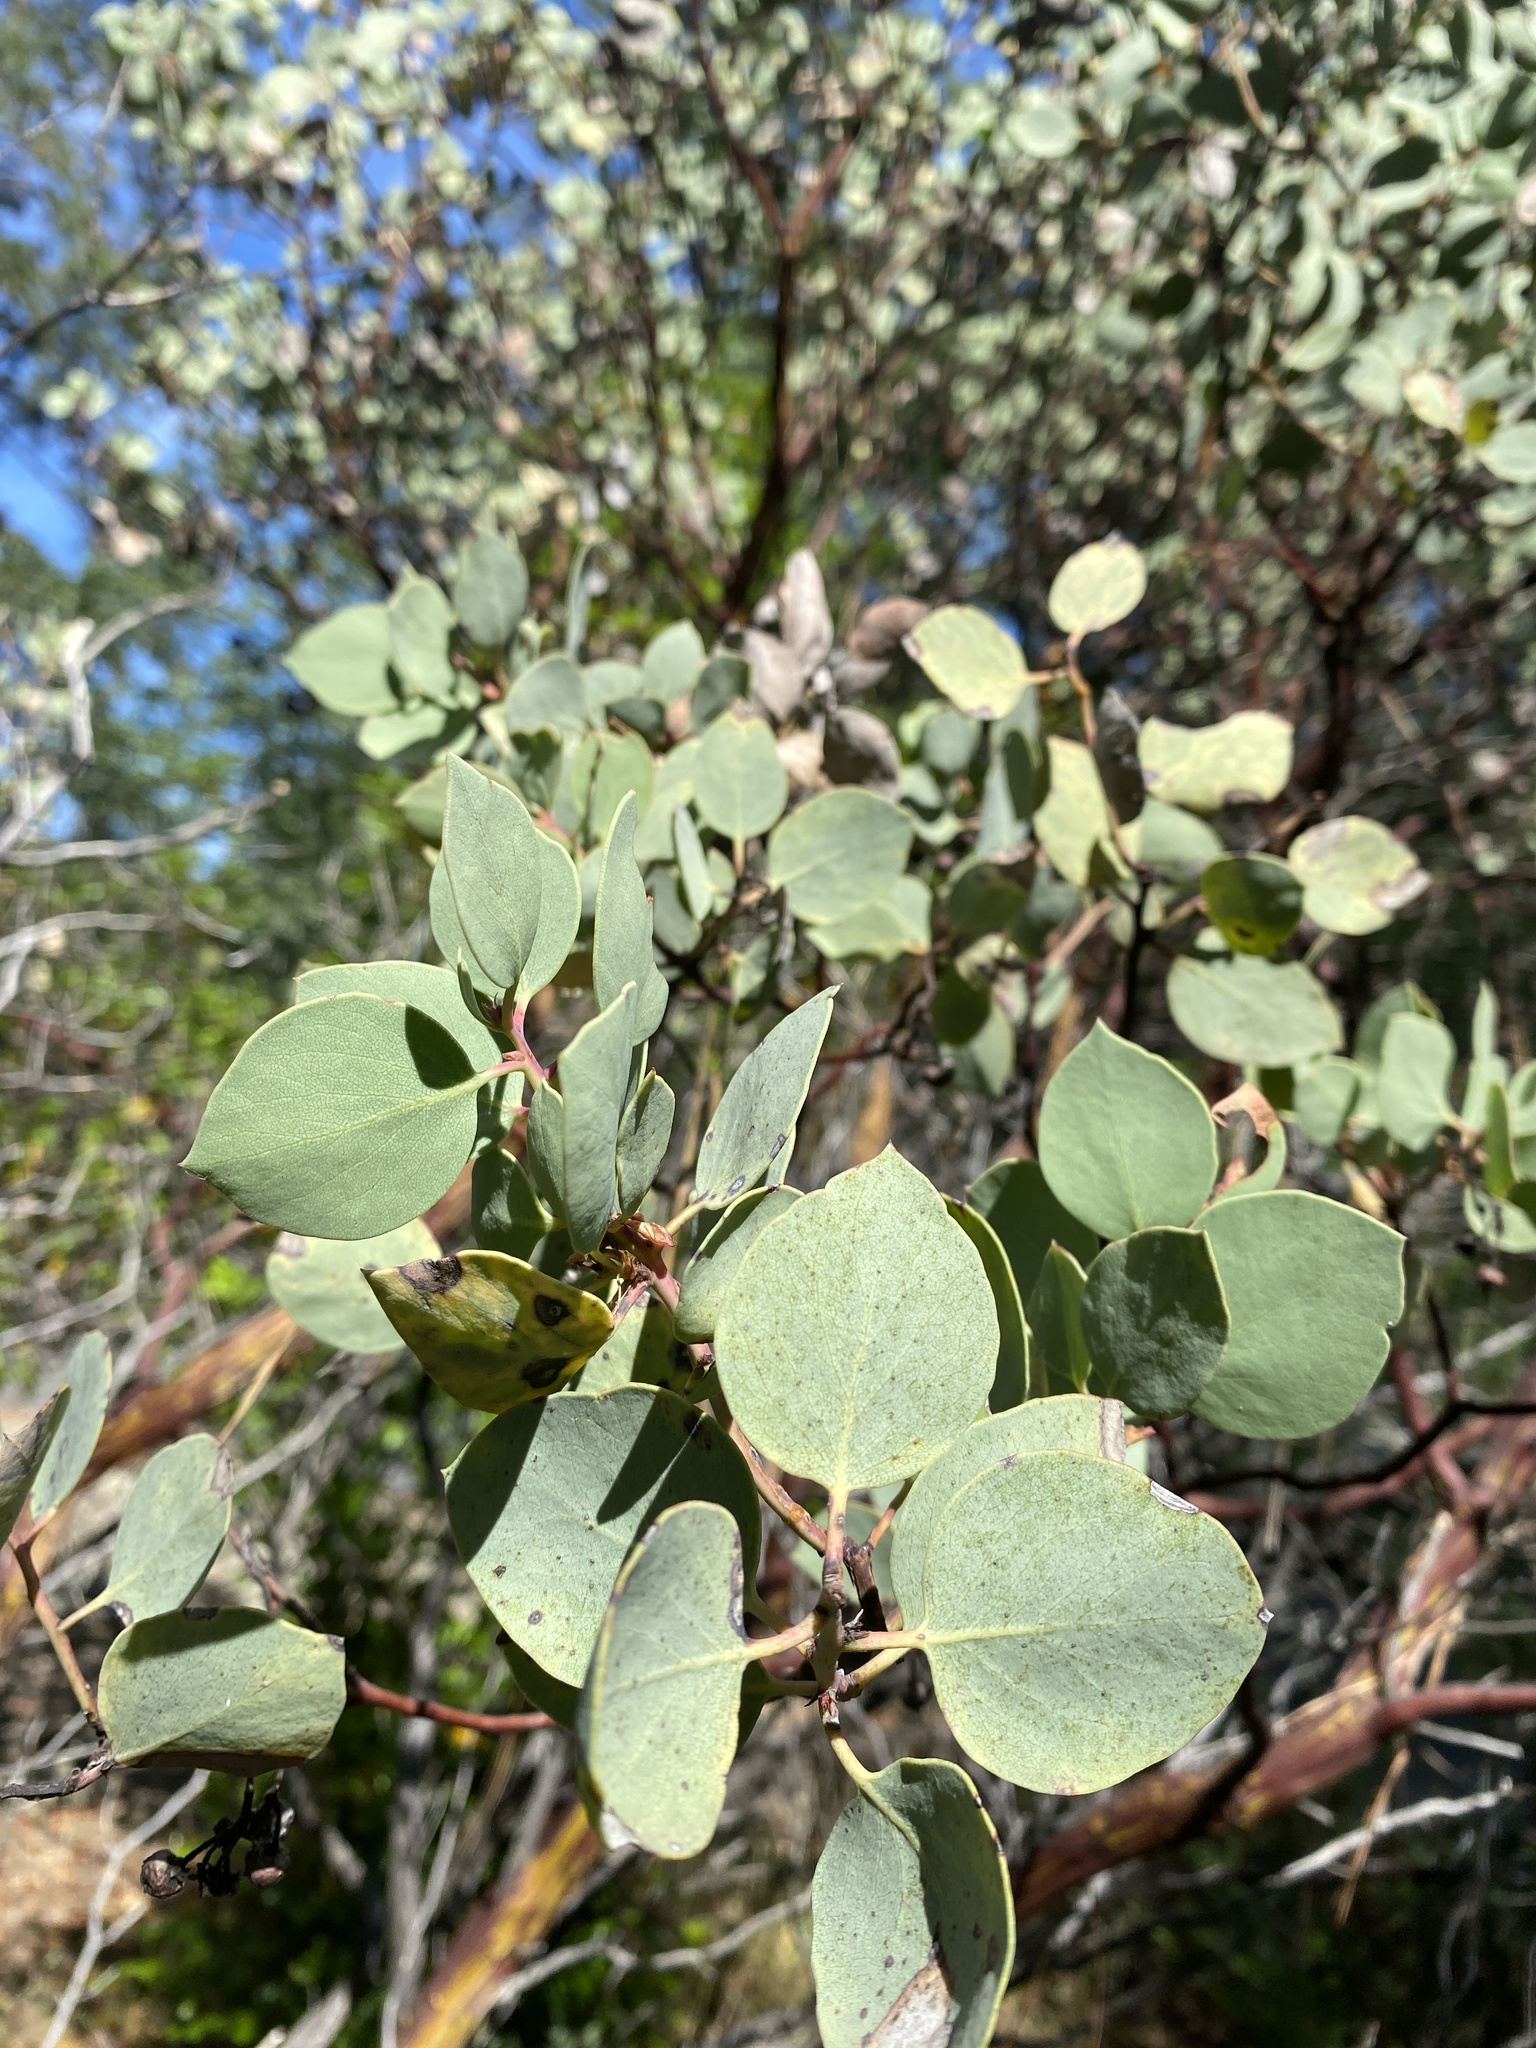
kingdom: Plantae
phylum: Tracheophyta
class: Magnoliopsida
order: Ericales
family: Ericaceae
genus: Arctostaphylos
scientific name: Arctostaphylos viscida
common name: White-leaf manzanita
